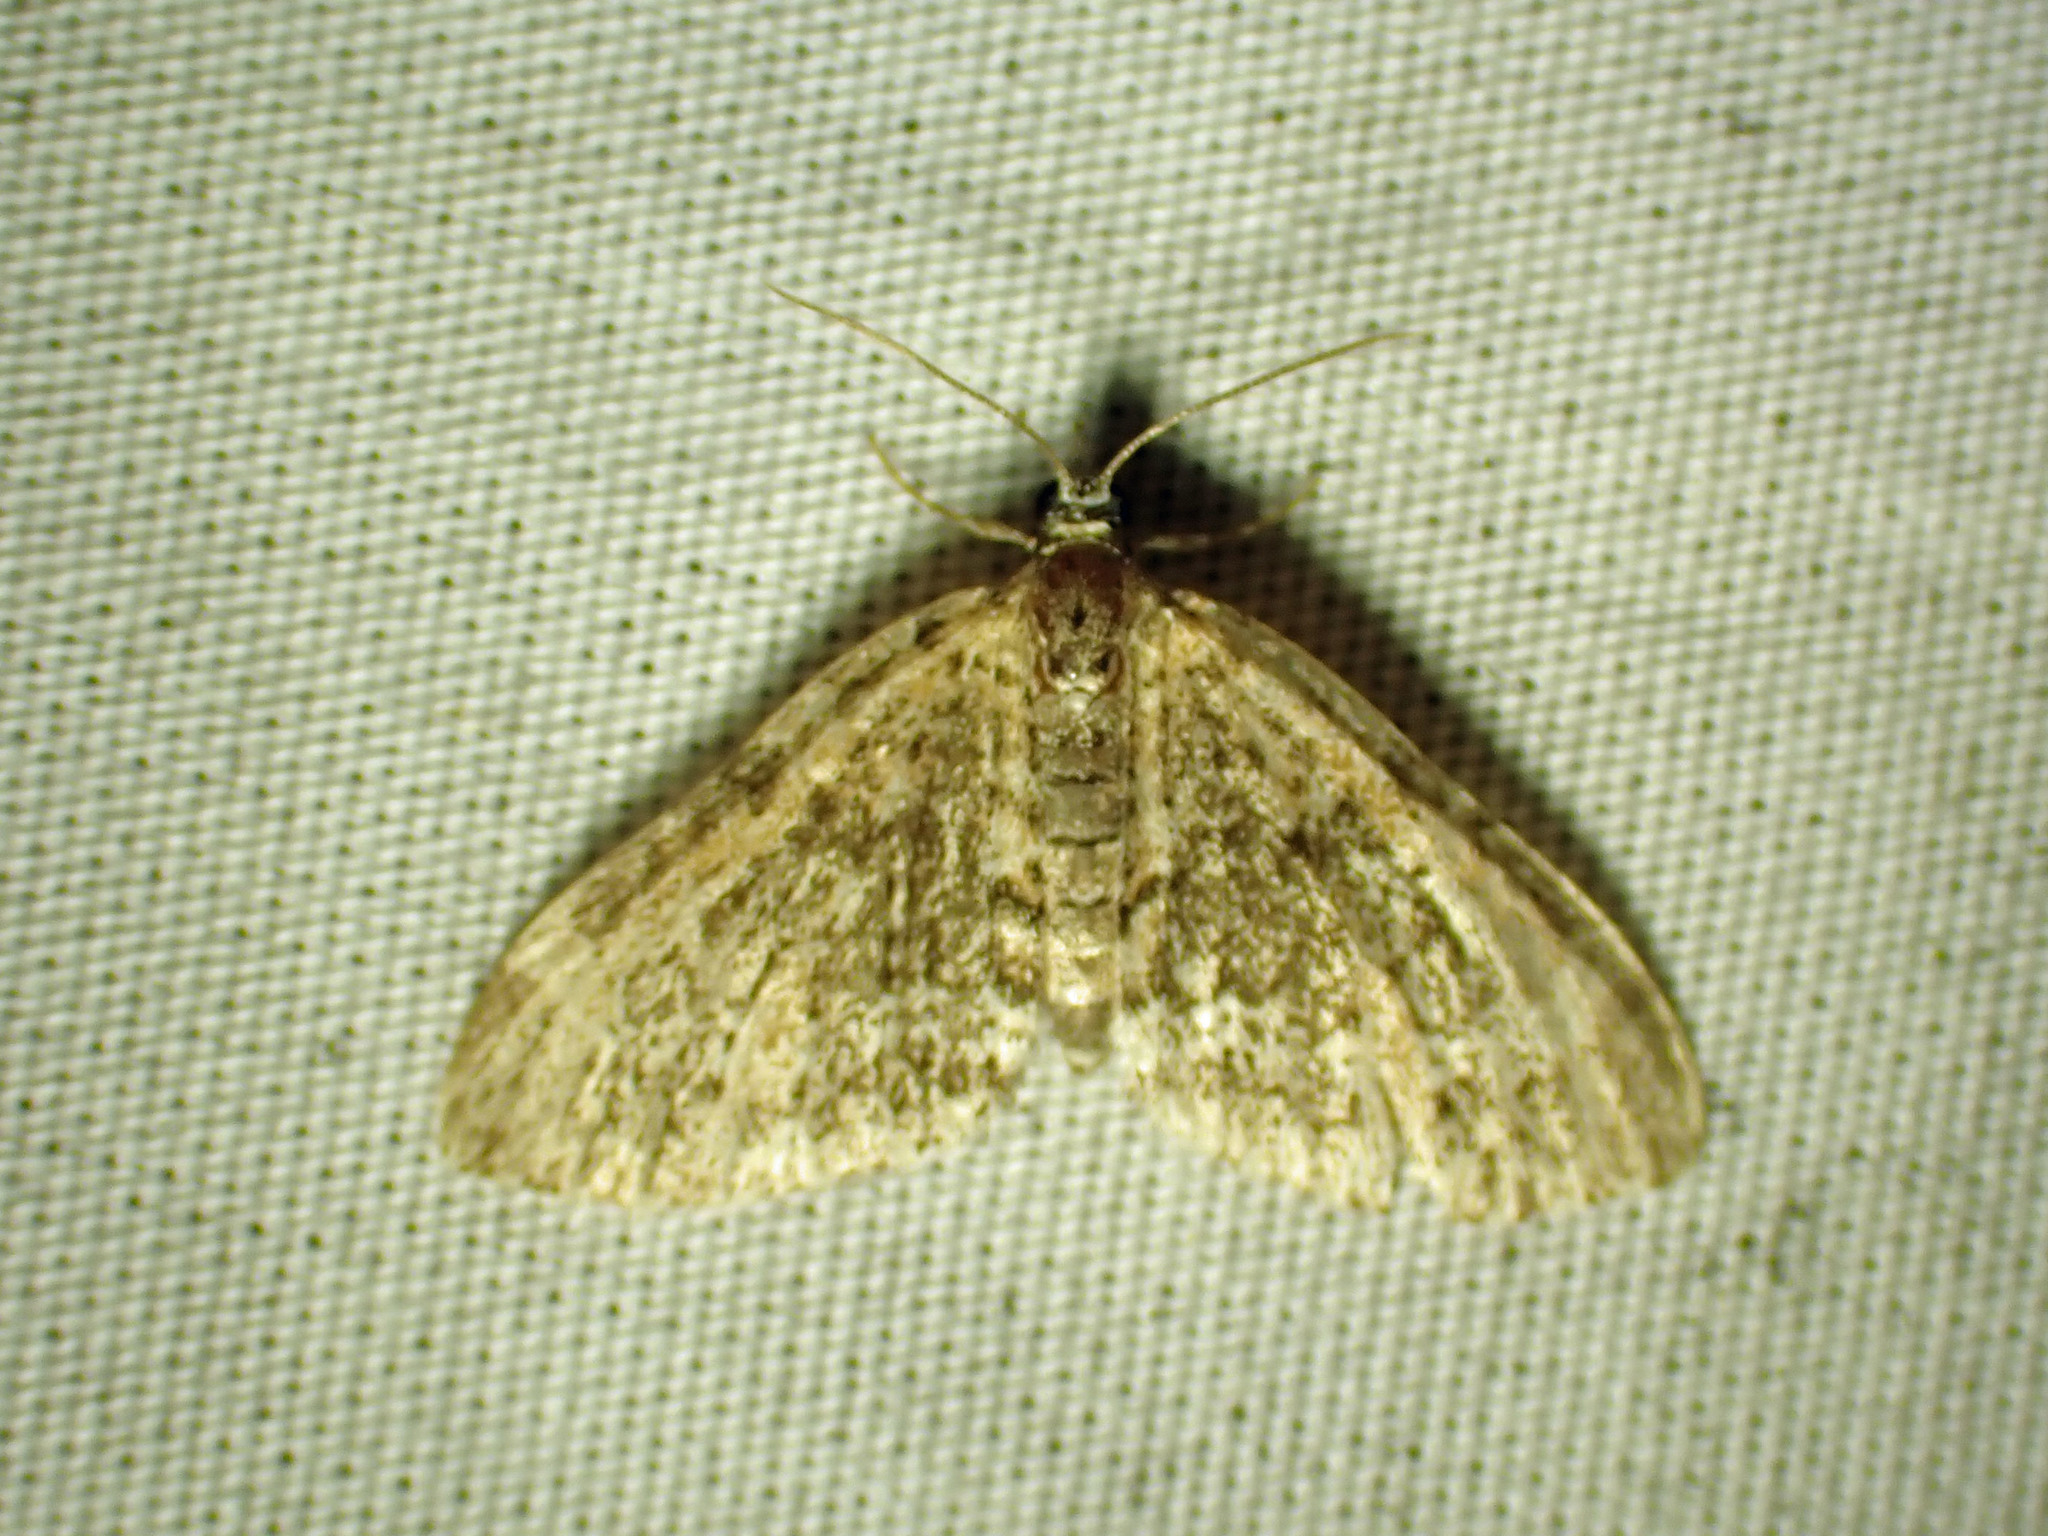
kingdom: Animalia
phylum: Arthropoda
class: Insecta
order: Lepidoptera
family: Geometridae
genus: Acasis
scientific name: Acasis viridata
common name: Olive-and-black carpet moth
